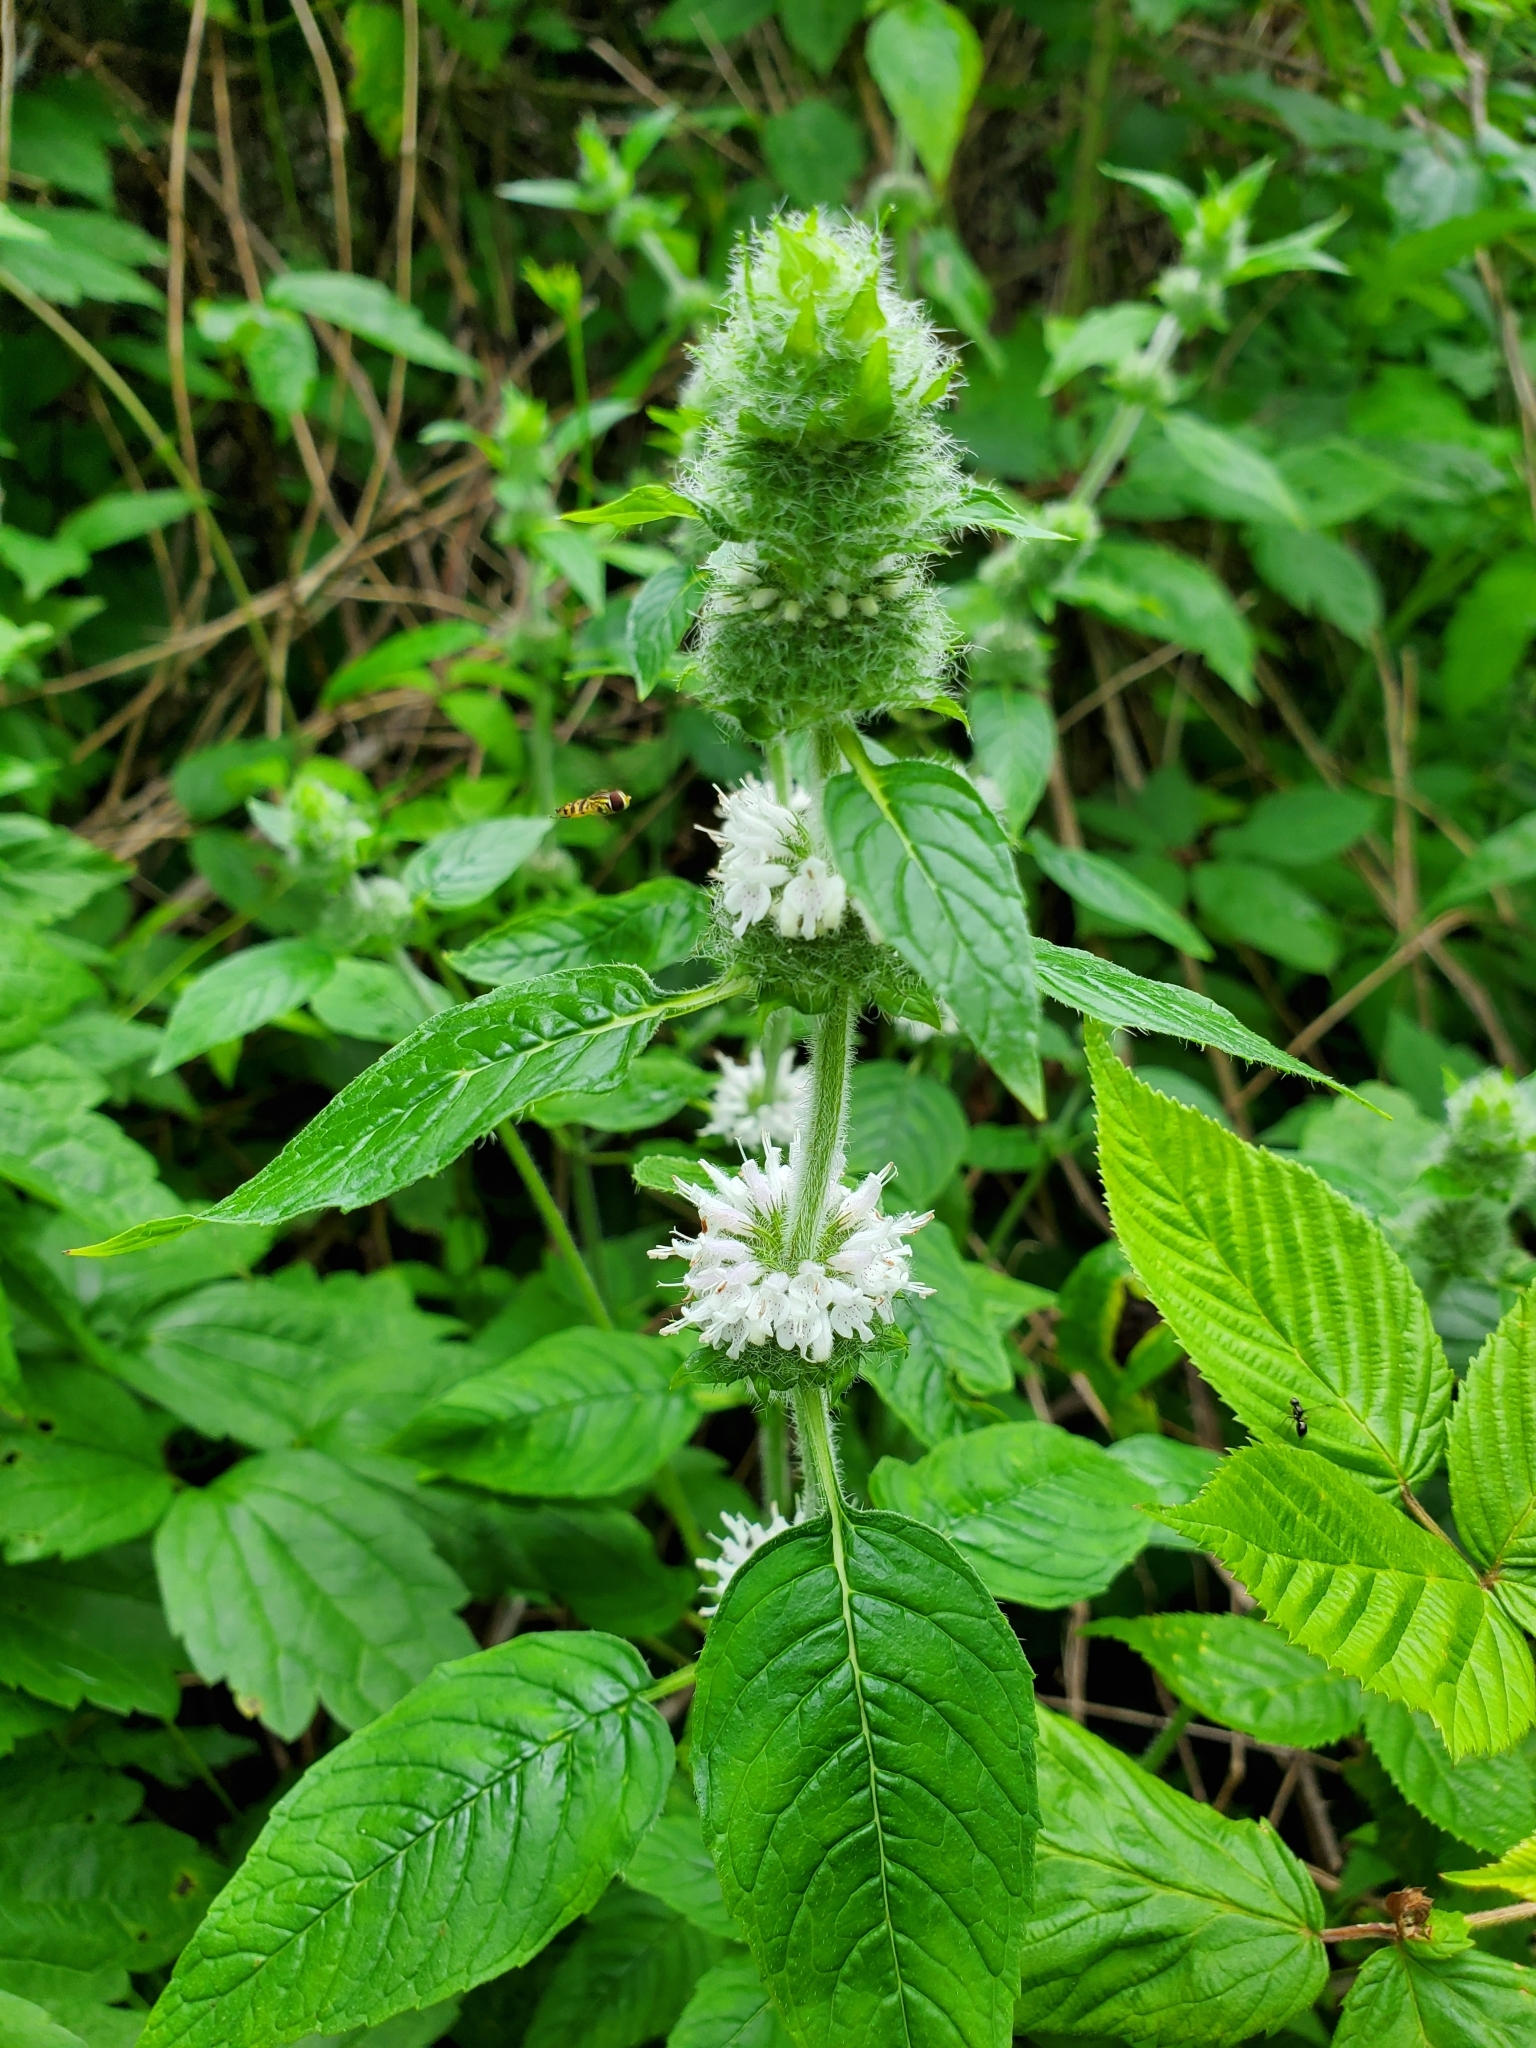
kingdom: Plantae
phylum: Tracheophyta
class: Magnoliopsida
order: Lamiales
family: Lamiaceae
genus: Blephilia
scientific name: Blephilia hirsuta
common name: Hairy blephilia
